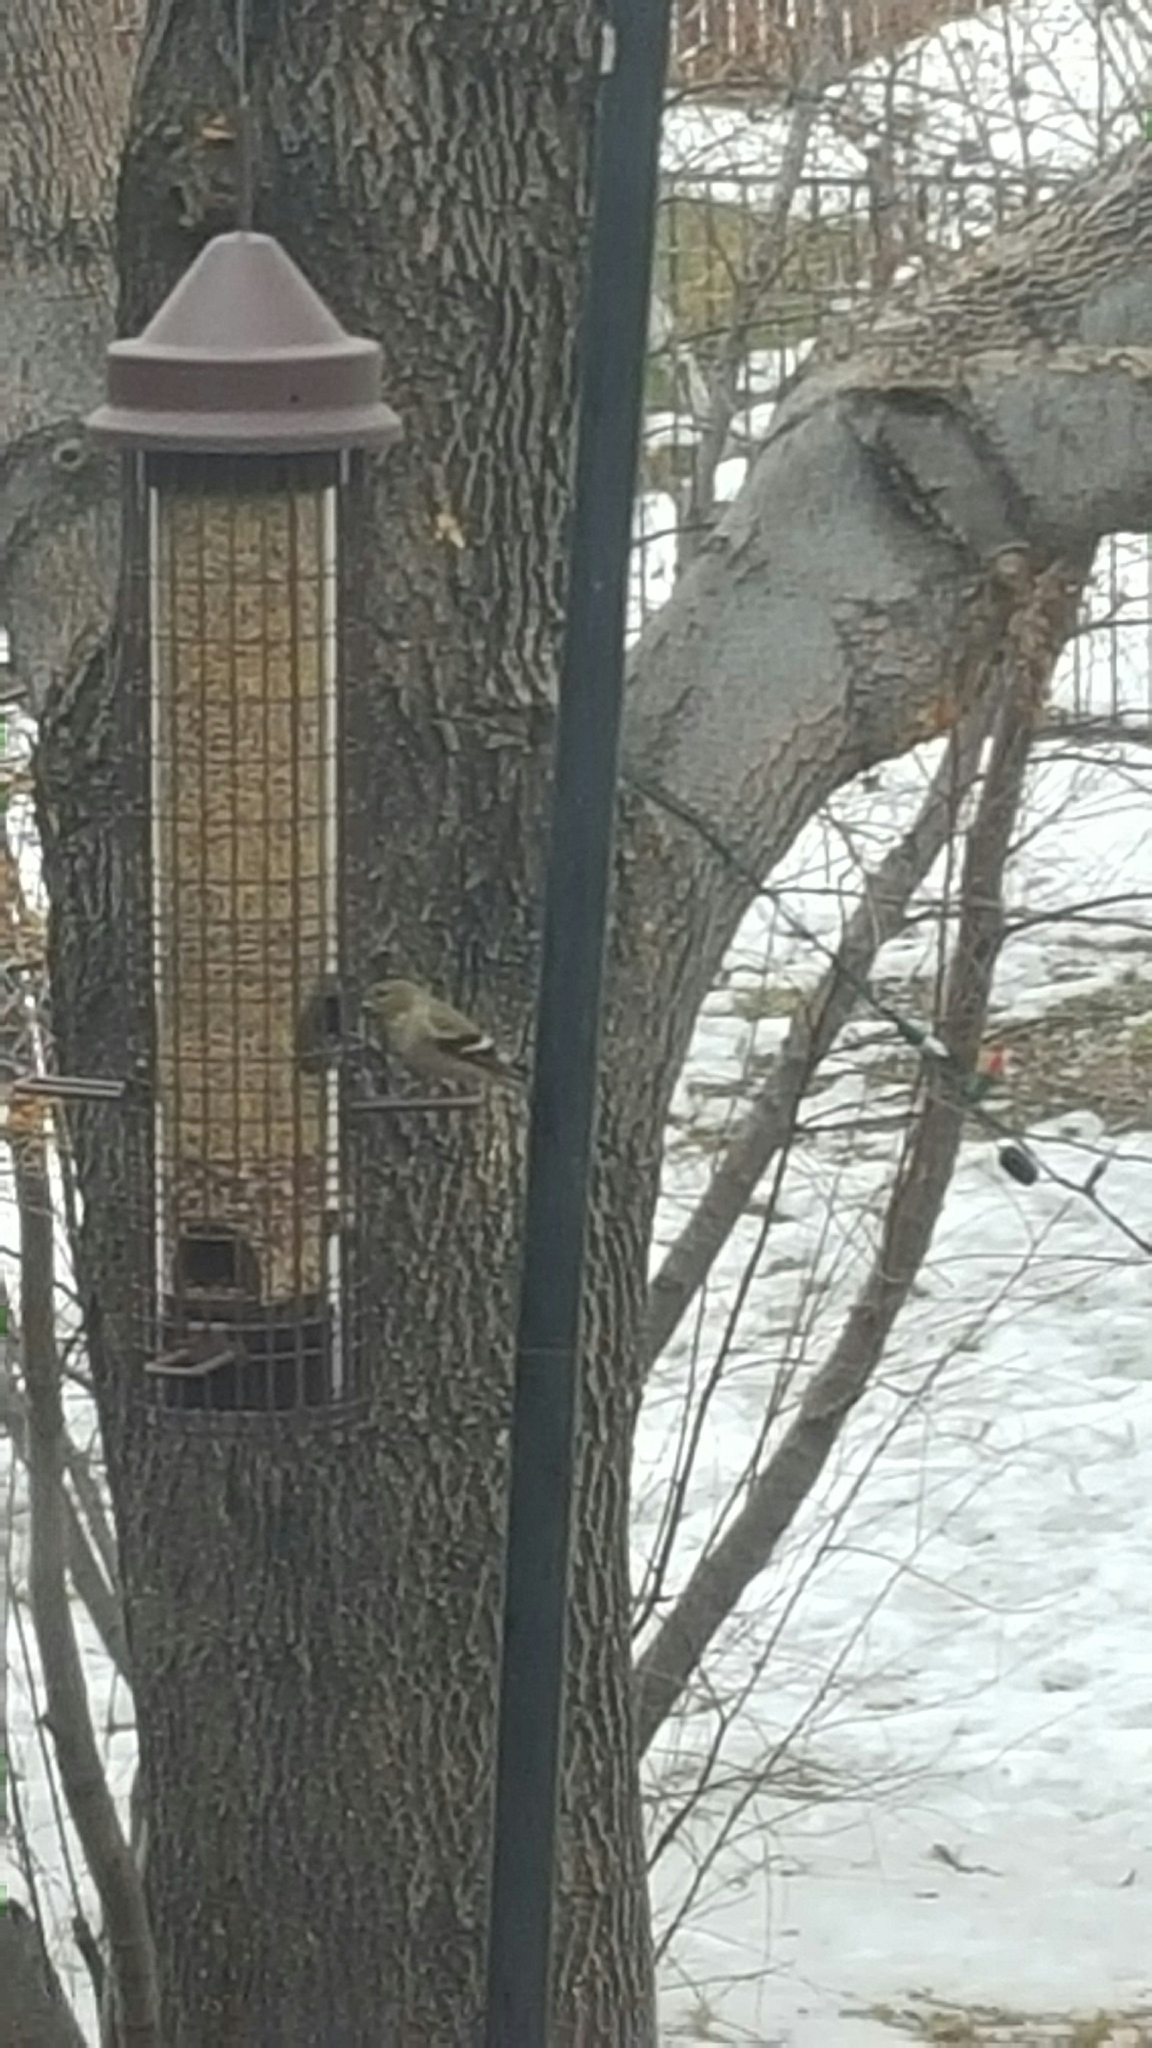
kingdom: Animalia
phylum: Chordata
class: Aves
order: Passeriformes
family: Fringillidae
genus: Spinus
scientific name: Spinus tristis
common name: American goldfinch
